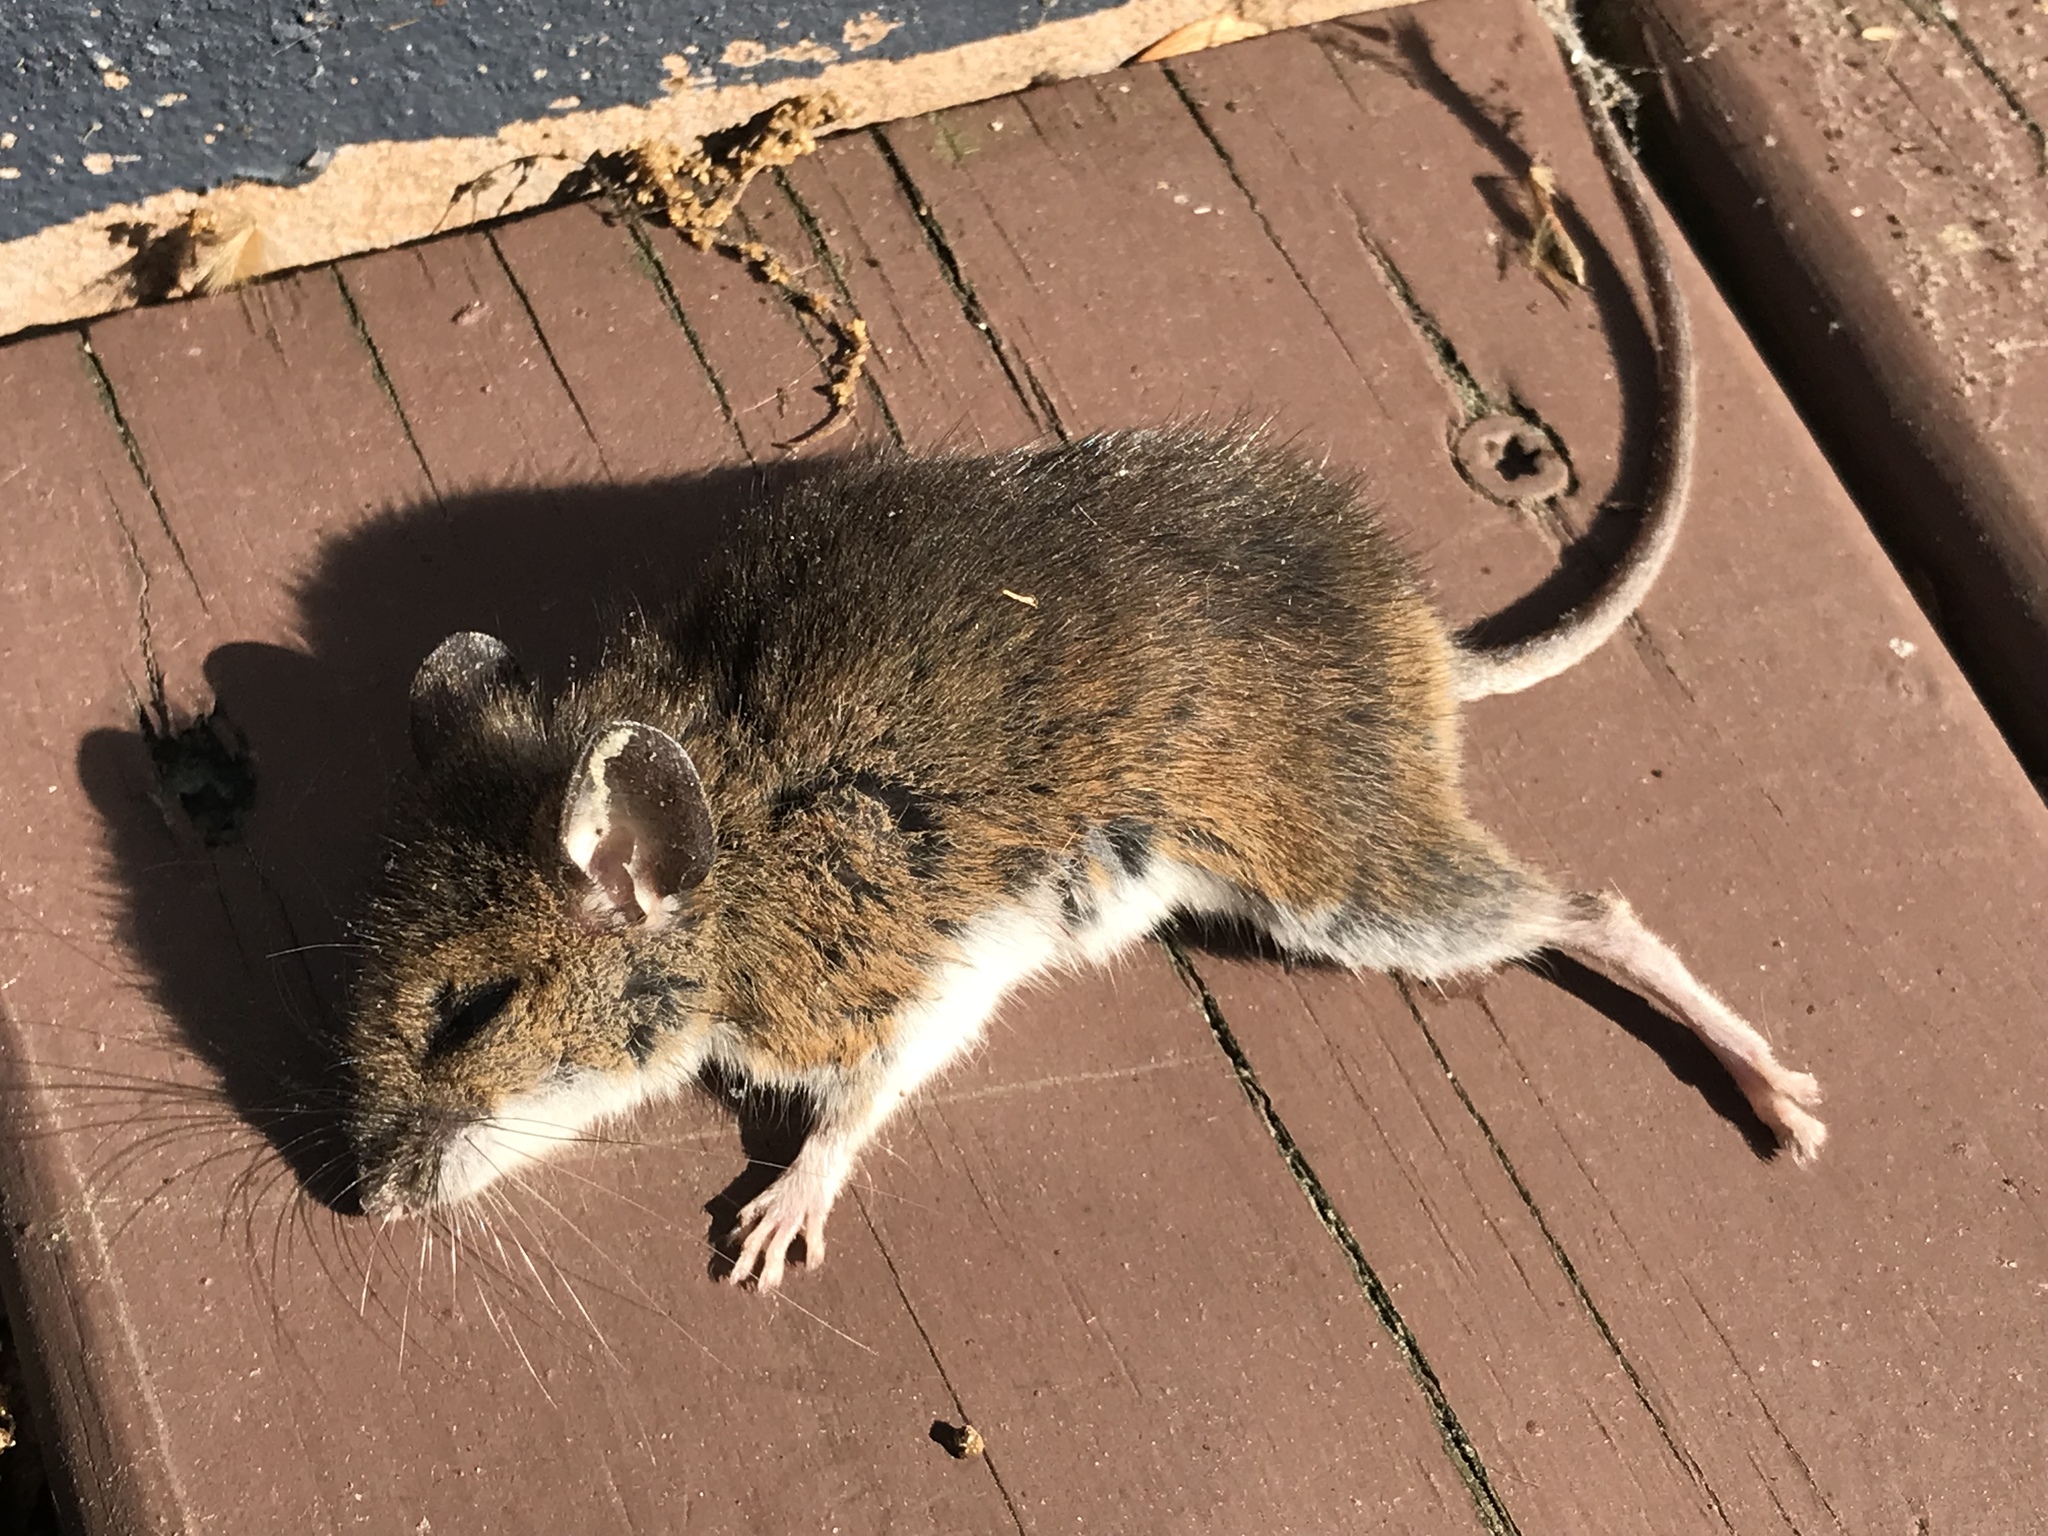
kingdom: Animalia
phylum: Chordata
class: Mammalia
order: Rodentia
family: Cricetidae
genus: Peromyscus
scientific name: Peromyscus
